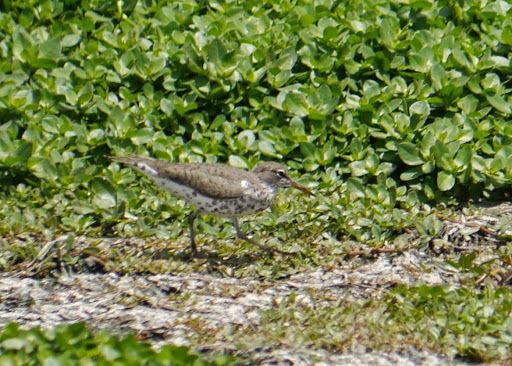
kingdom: Animalia
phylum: Chordata
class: Aves
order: Charadriiformes
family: Scolopacidae
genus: Actitis
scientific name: Actitis macularius
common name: Spotted sandpiper
